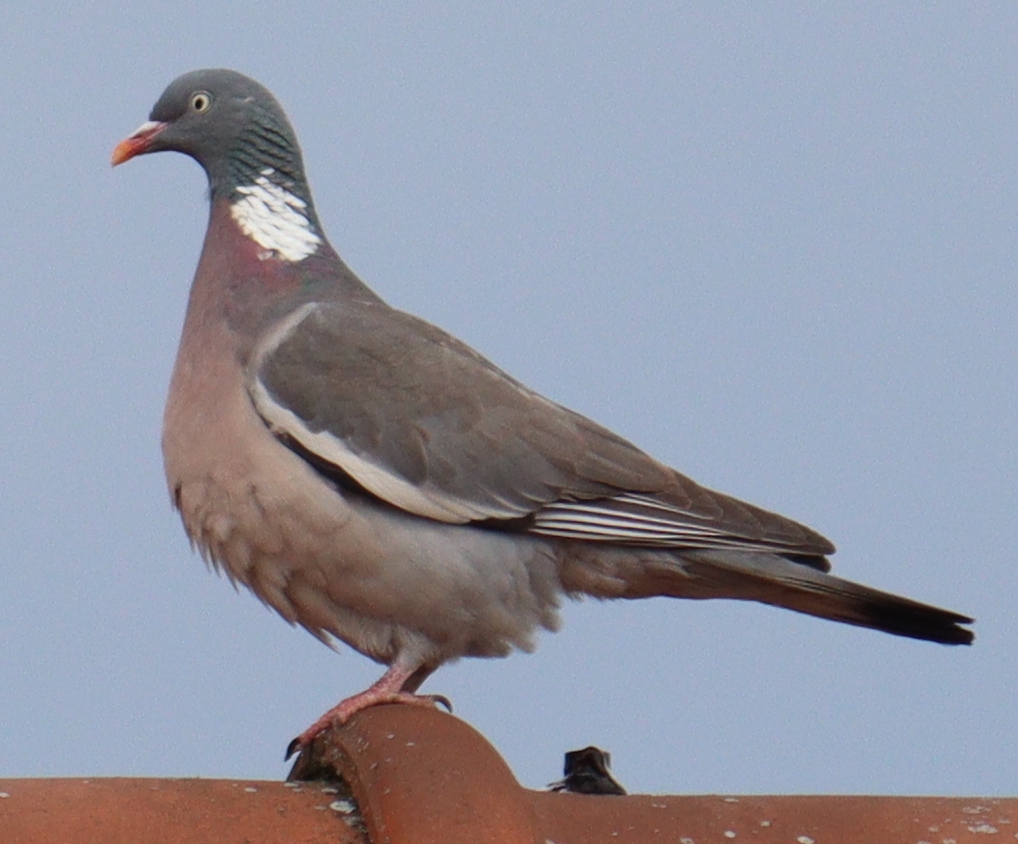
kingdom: Animalia
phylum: Chordata
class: Aves
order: Columbiformes
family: Columbidae
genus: Columba
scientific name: Columba palumbus
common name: Common wood pigeon
